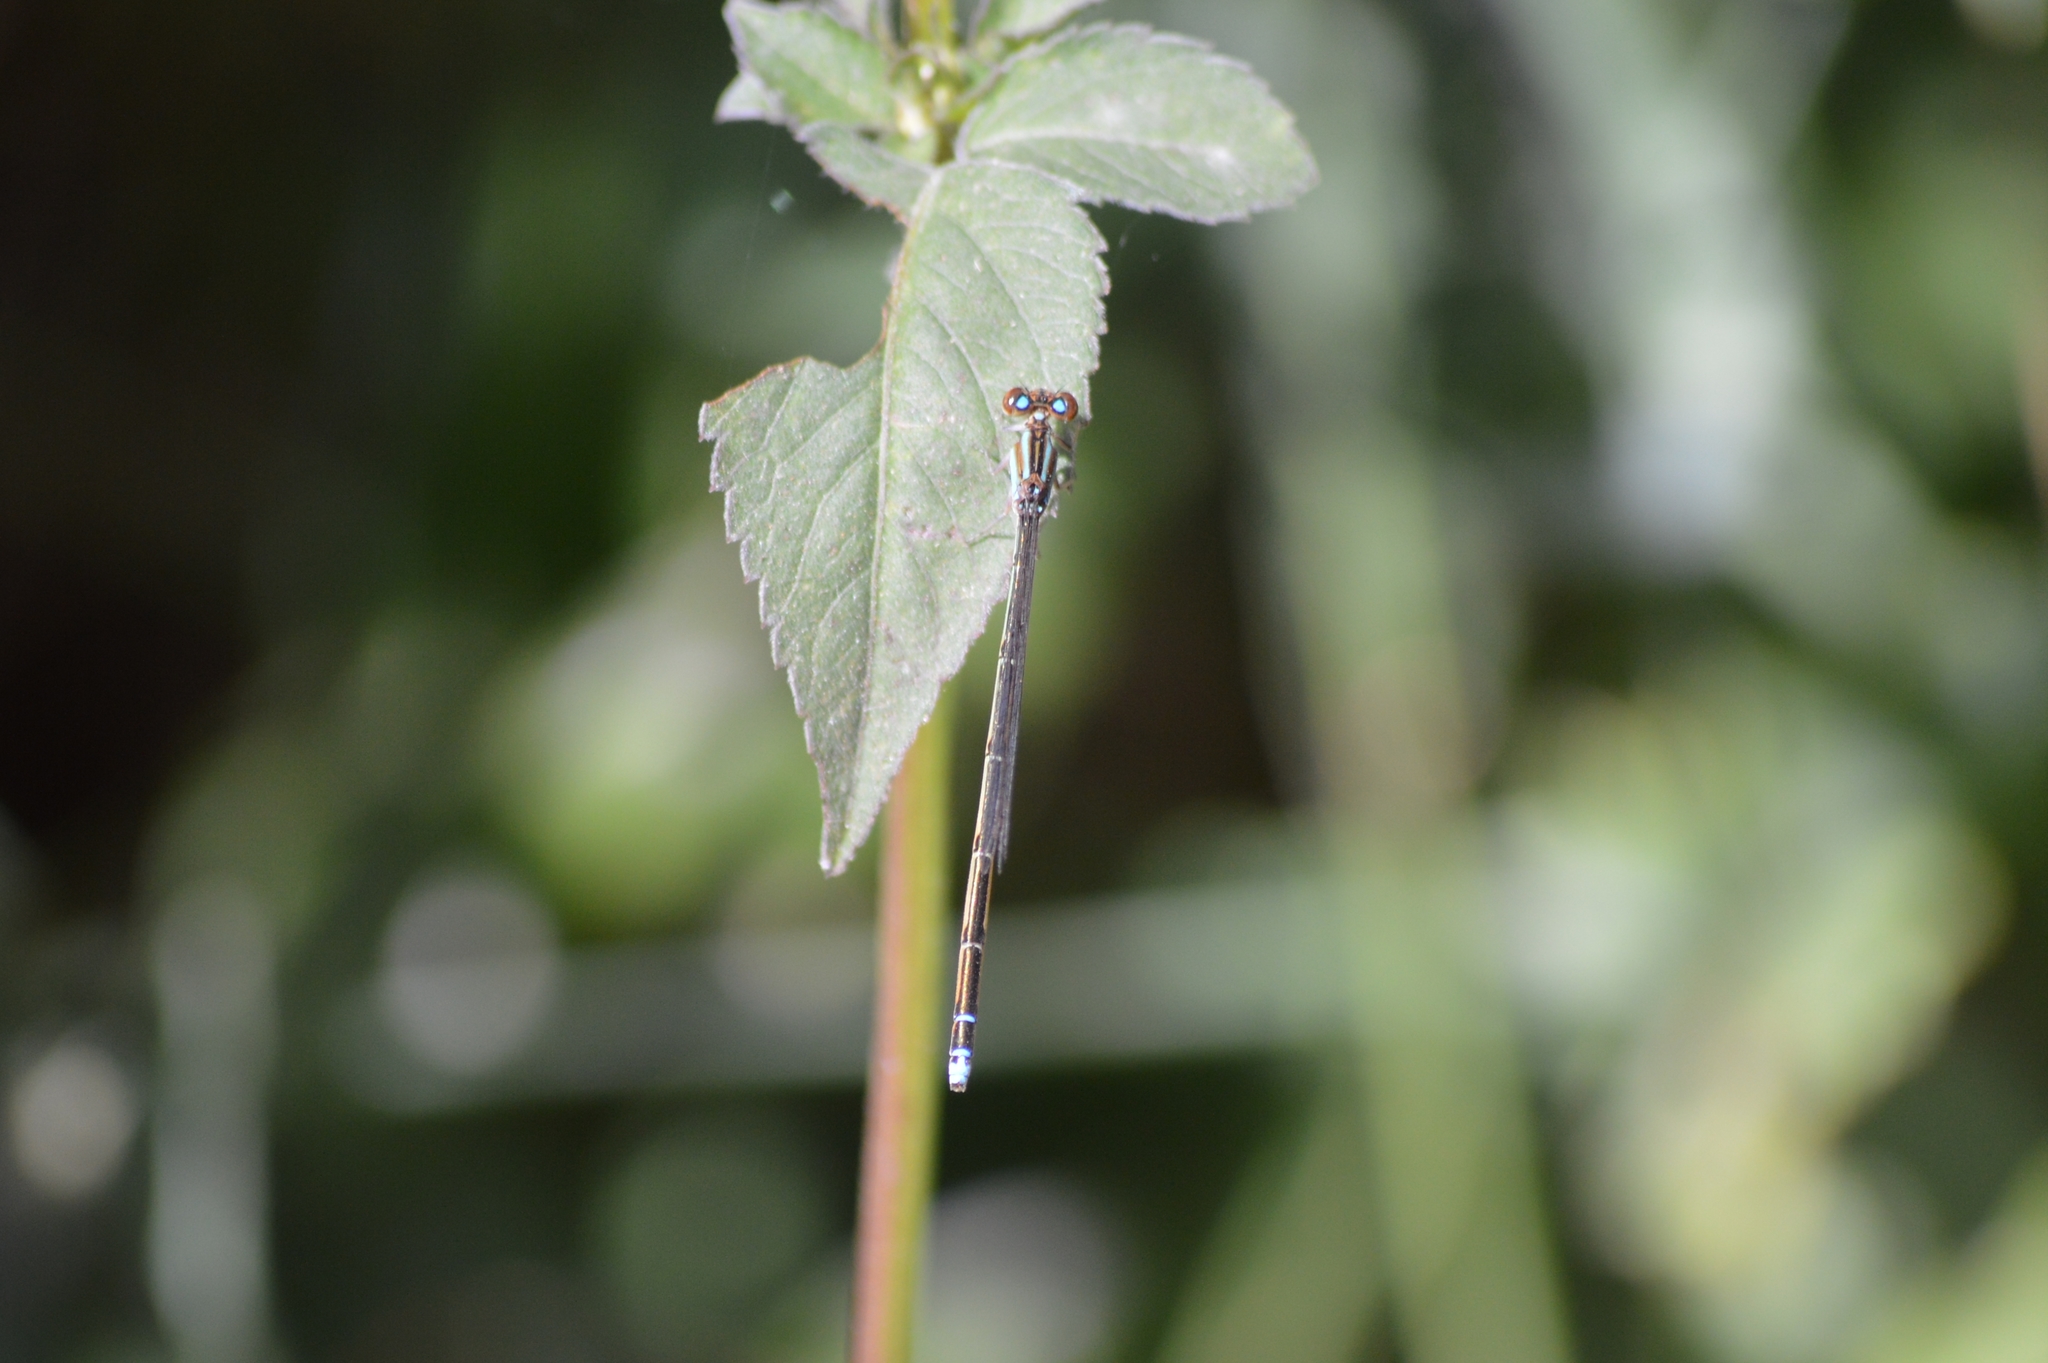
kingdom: Animalia
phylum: Arthropoda
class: Insecta
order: Odonata
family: Coenagrionidae
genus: Ischnura
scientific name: Ischnura fluviatilis
